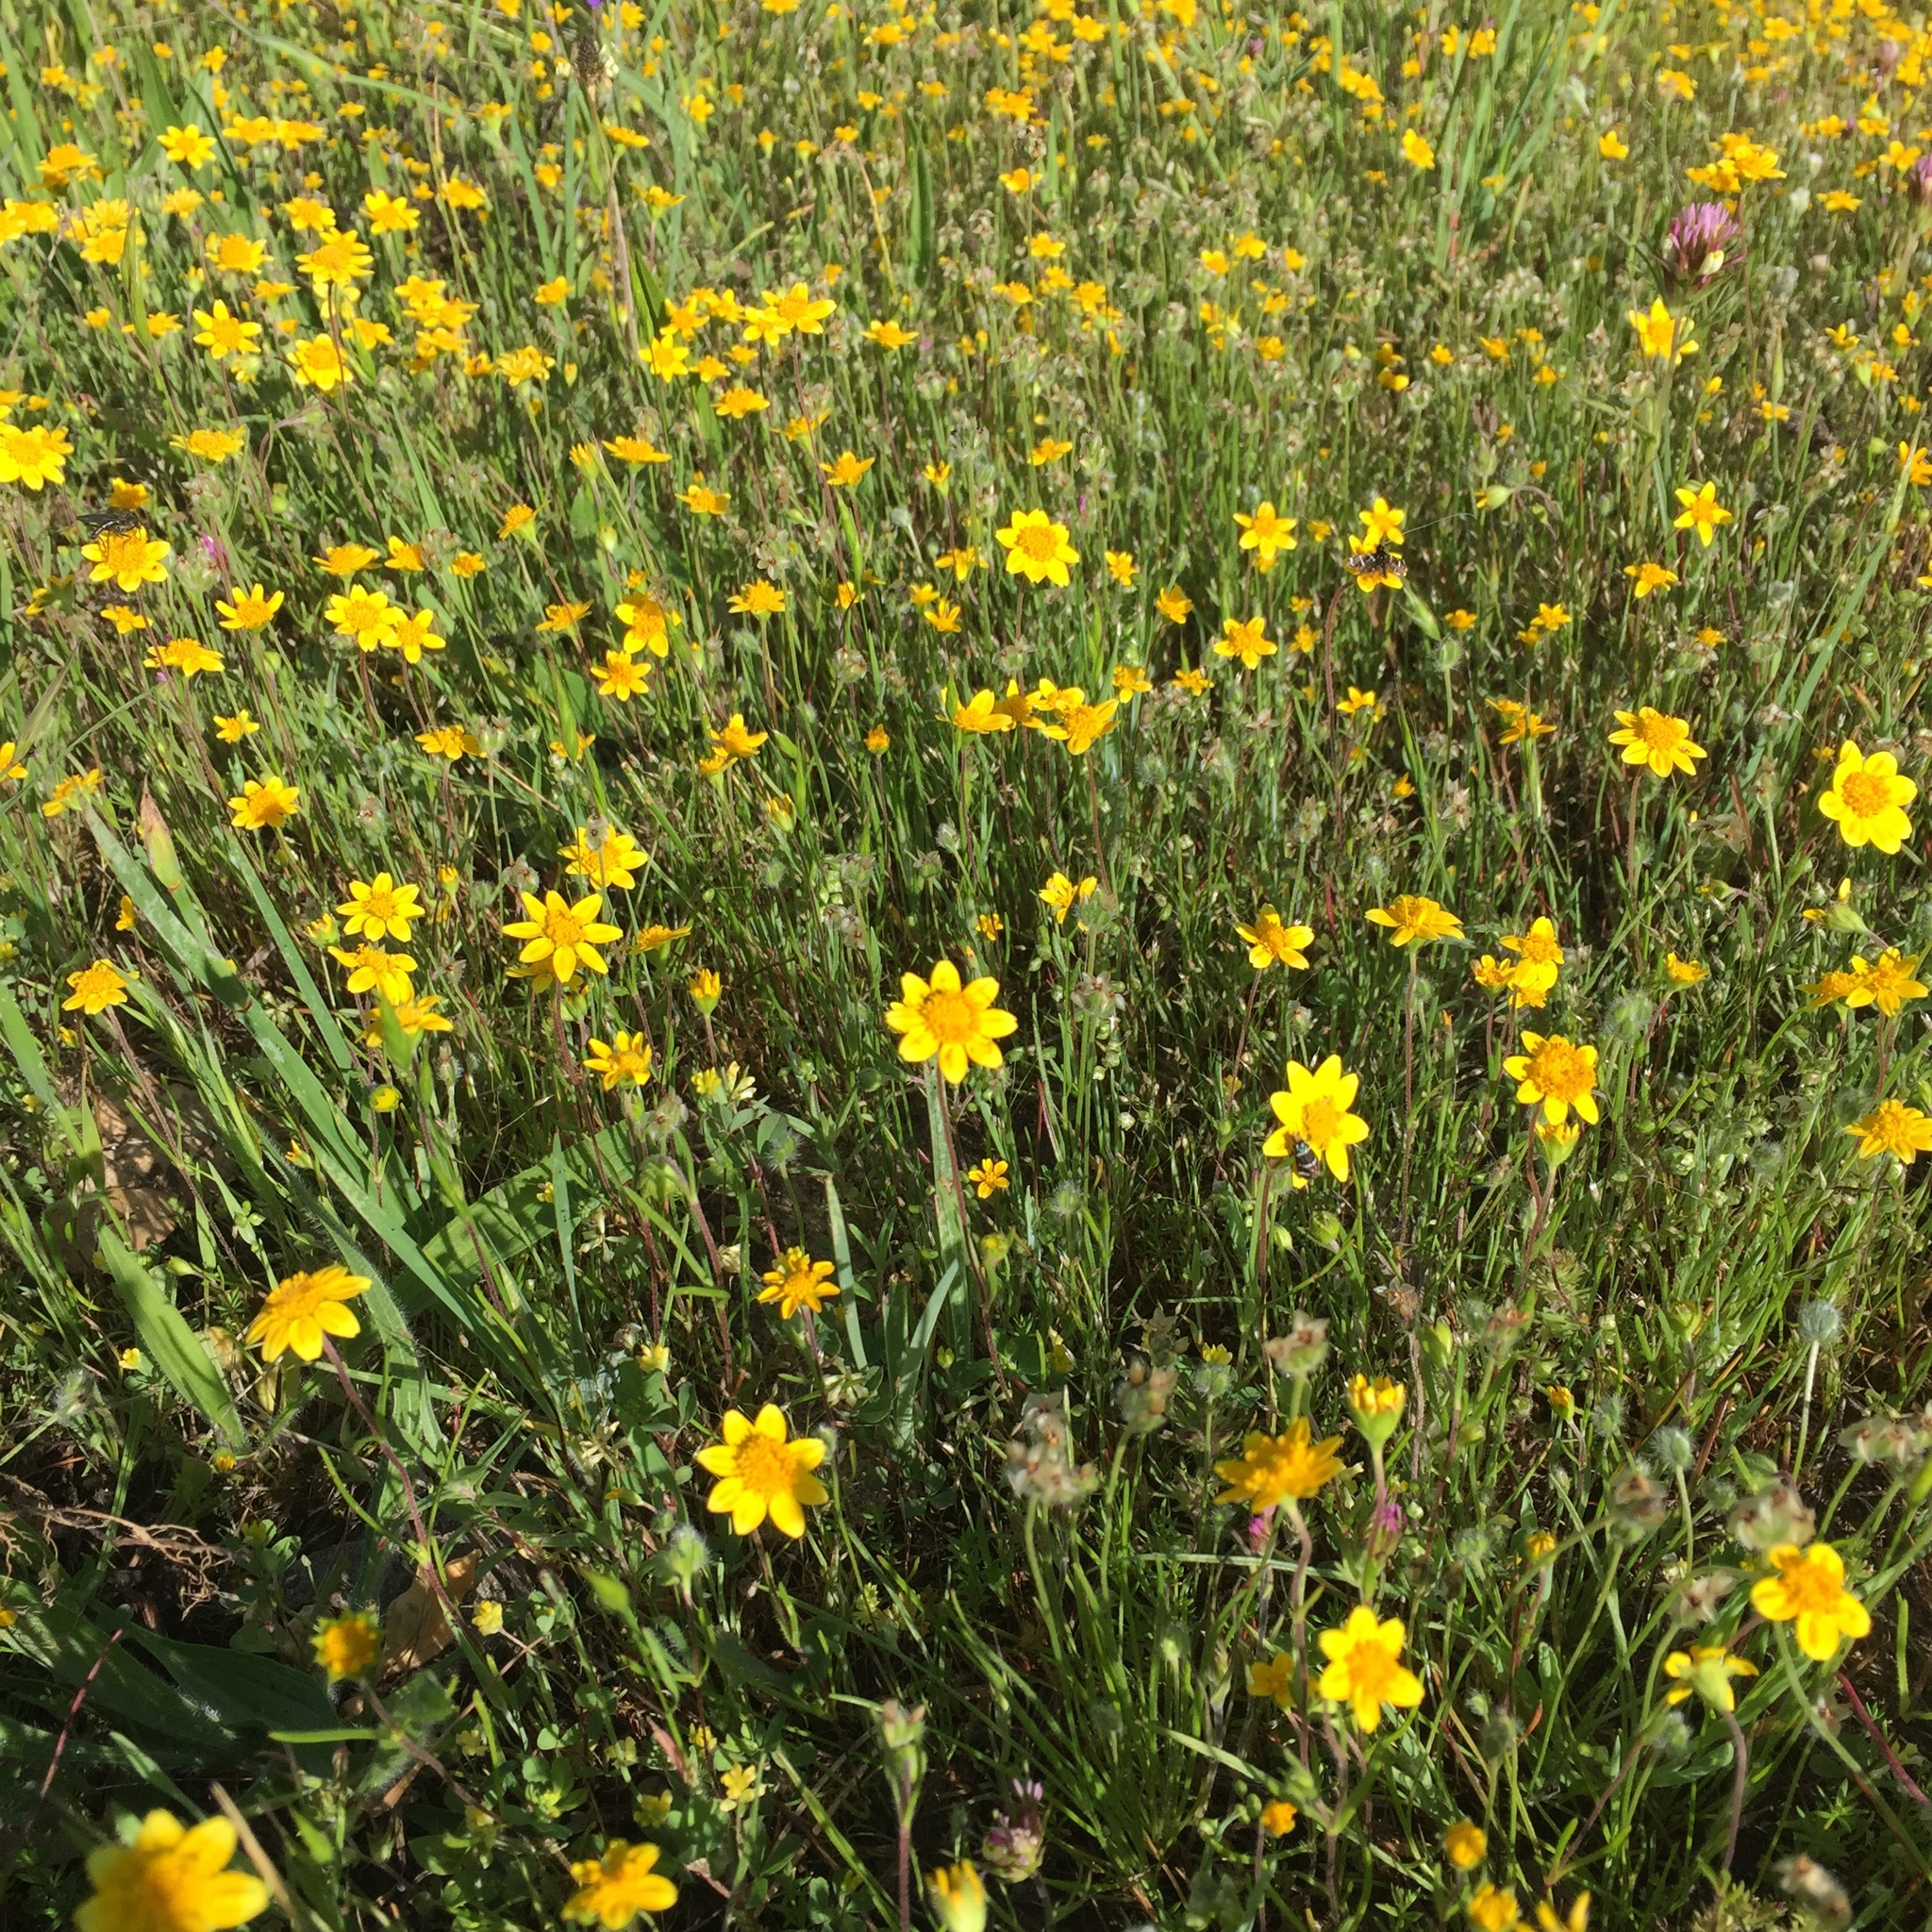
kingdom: Plantae
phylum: Tracheophyta
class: Magnoliopsida
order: Asterales
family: Asteraceae
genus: Lasthenia
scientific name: Lasthenia californica
